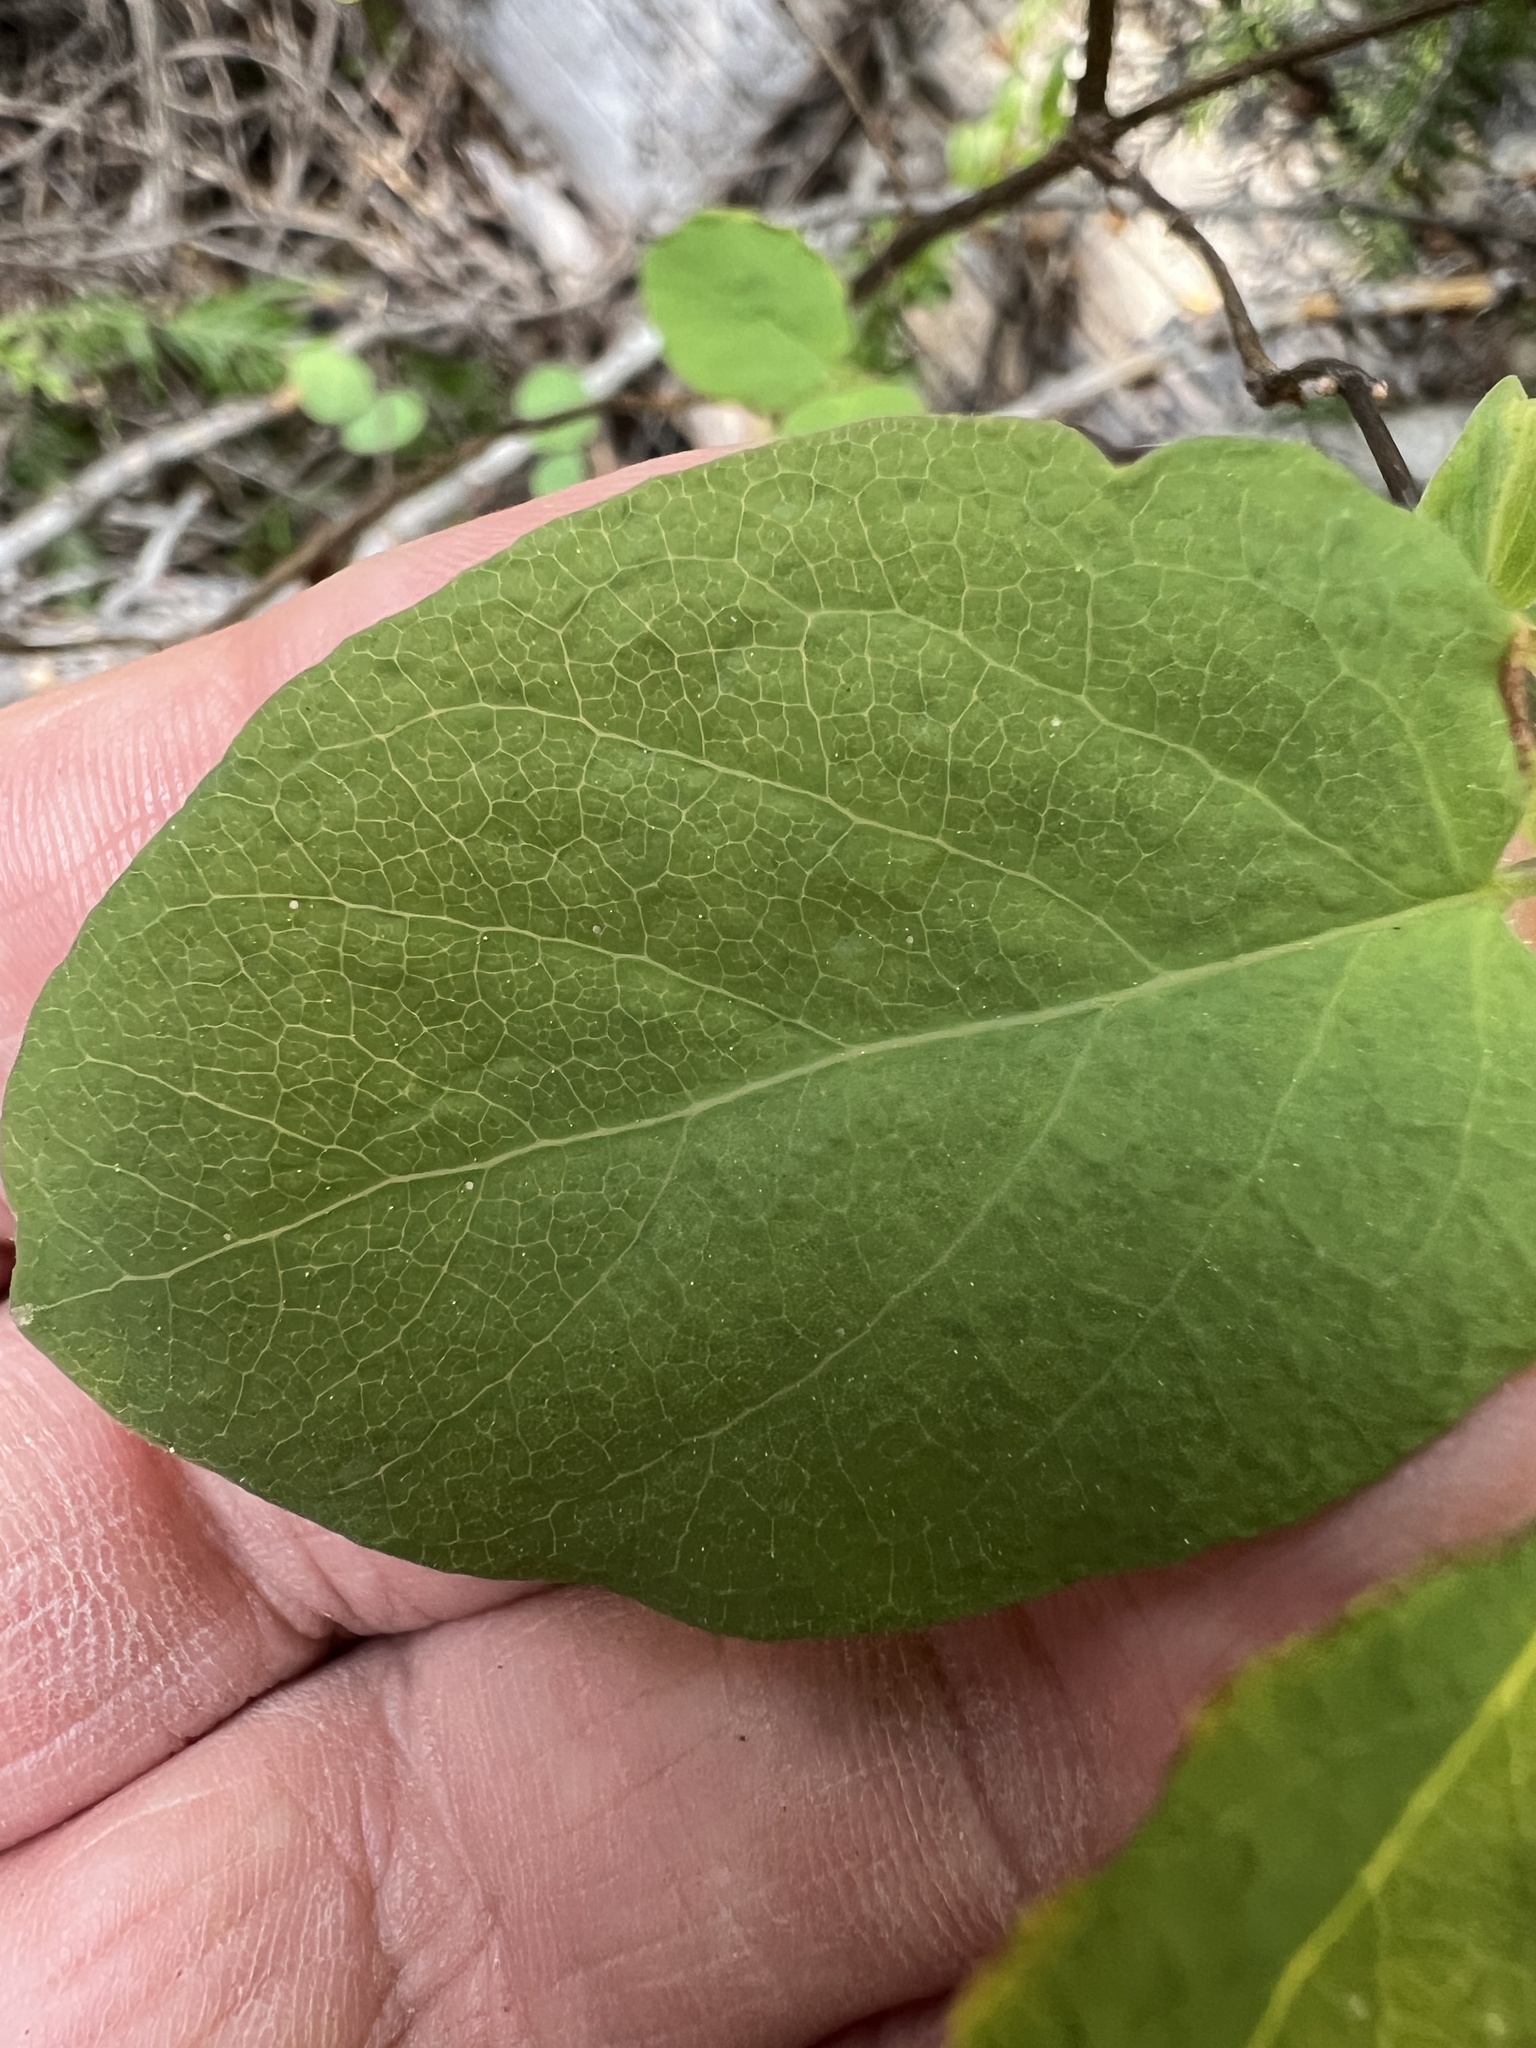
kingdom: Plantae
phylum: Tracheophyta
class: Magnoliopsida
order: Dipsacales
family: Caprifoliaceae
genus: Lonicera
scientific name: Lonicera utahensis
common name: Utah honeysuckle
